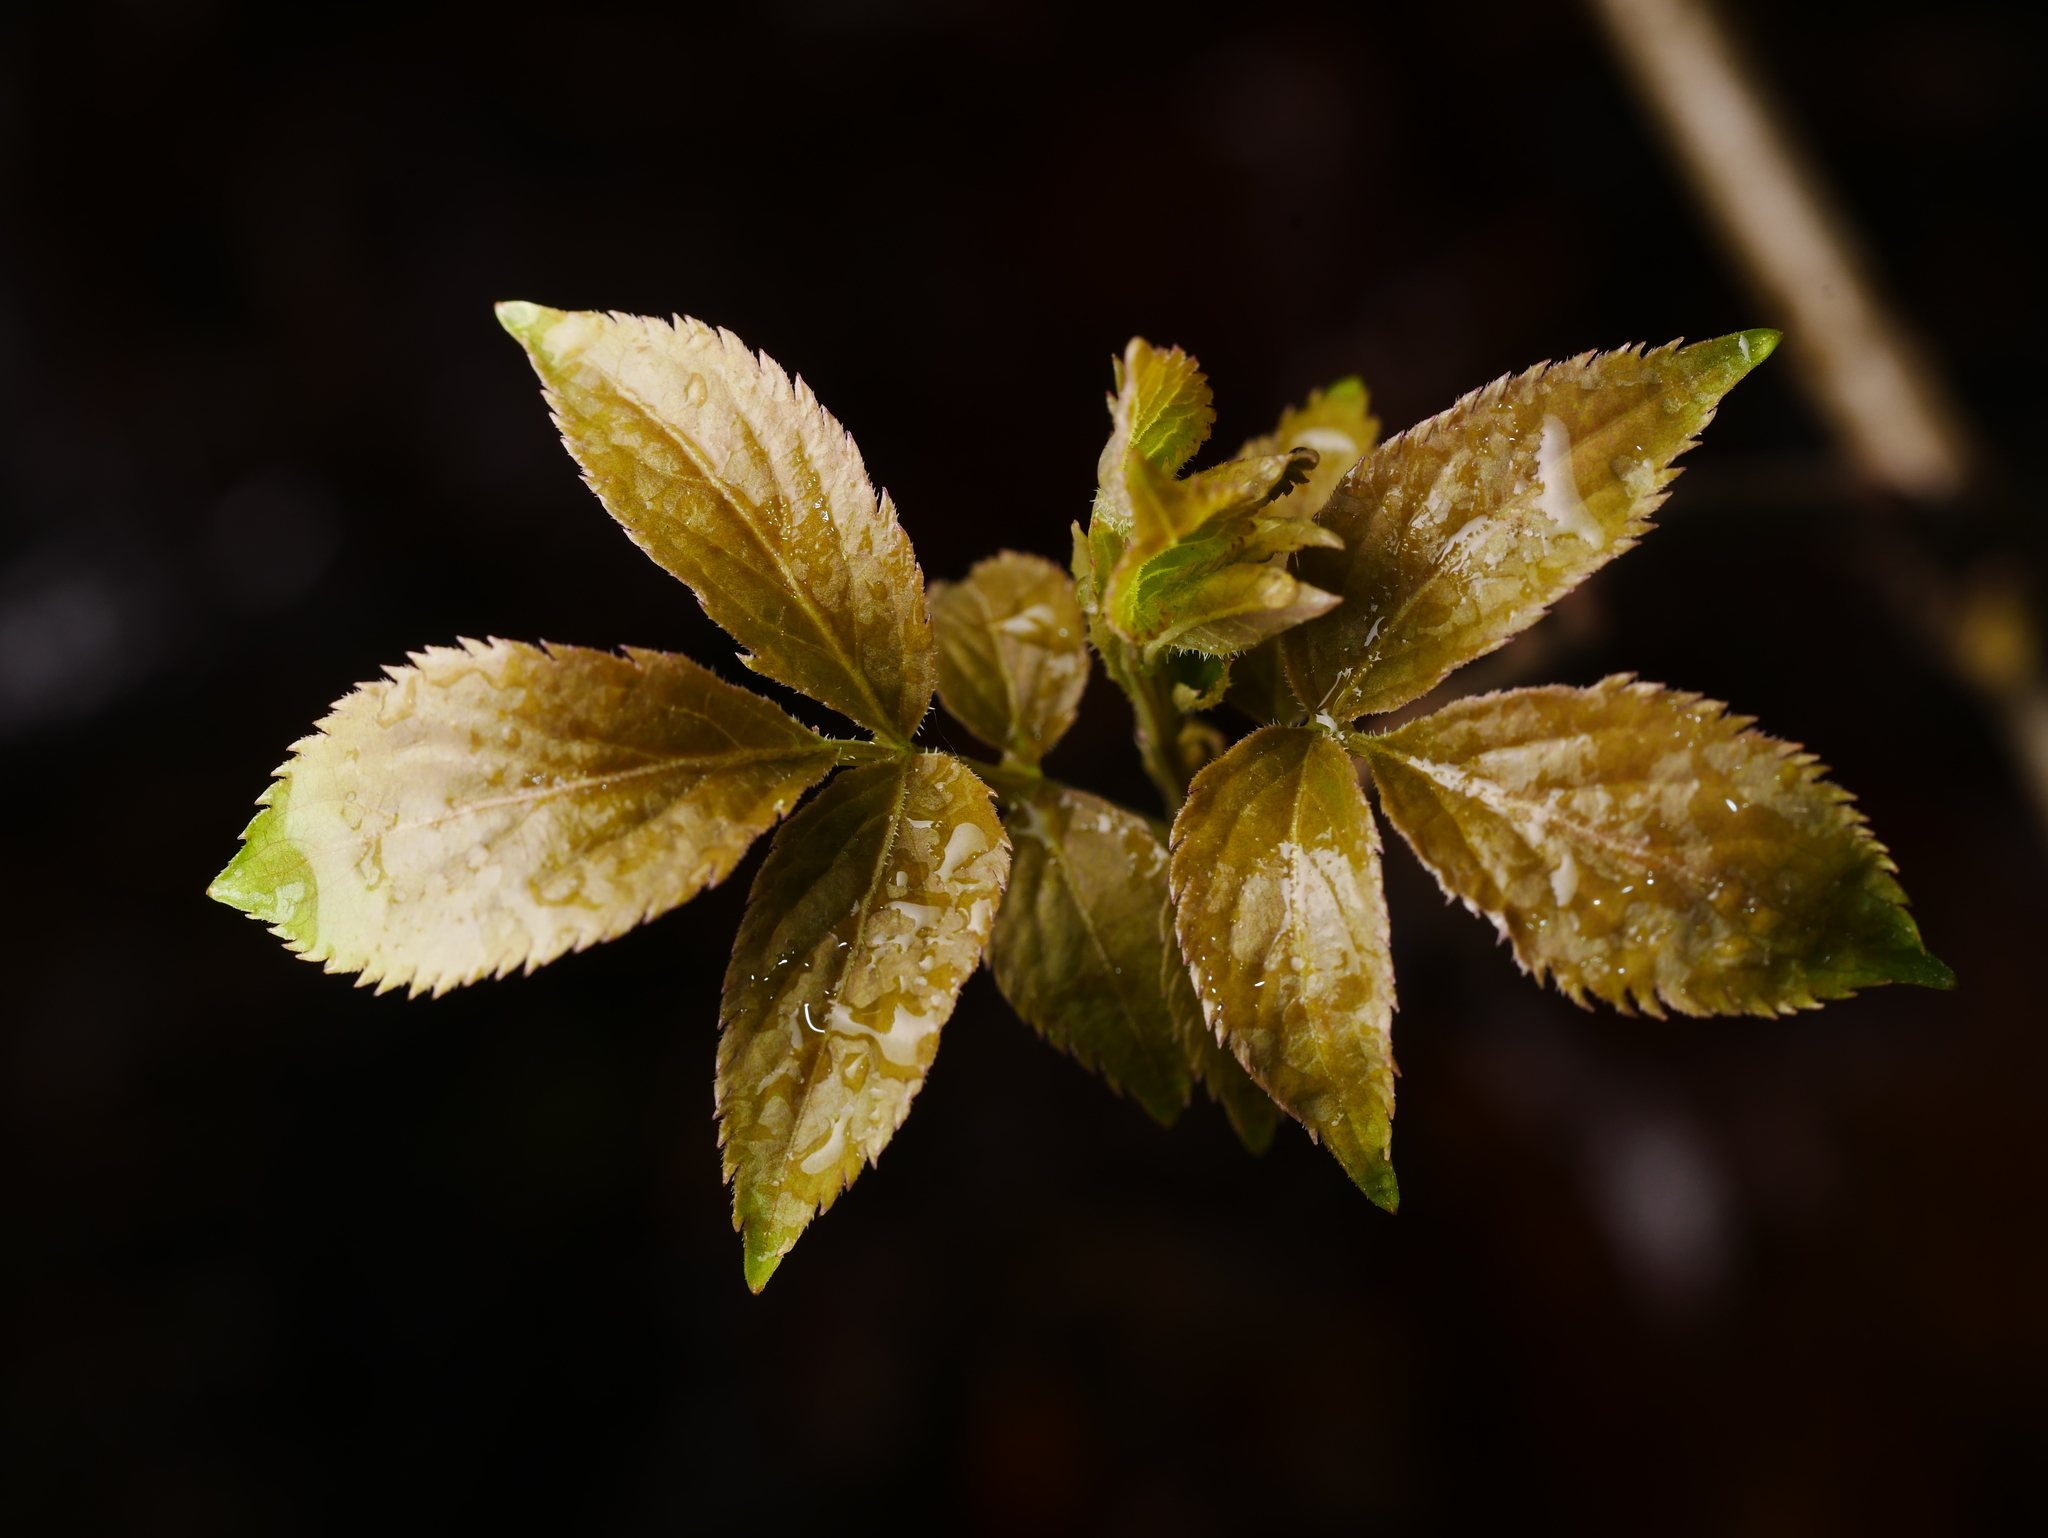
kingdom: Plantae
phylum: Tracheophyta
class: Magnoliopsida
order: Dipsacales
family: Viburnaceae
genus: Sambucus
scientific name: Sambucus nigra
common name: Elder
